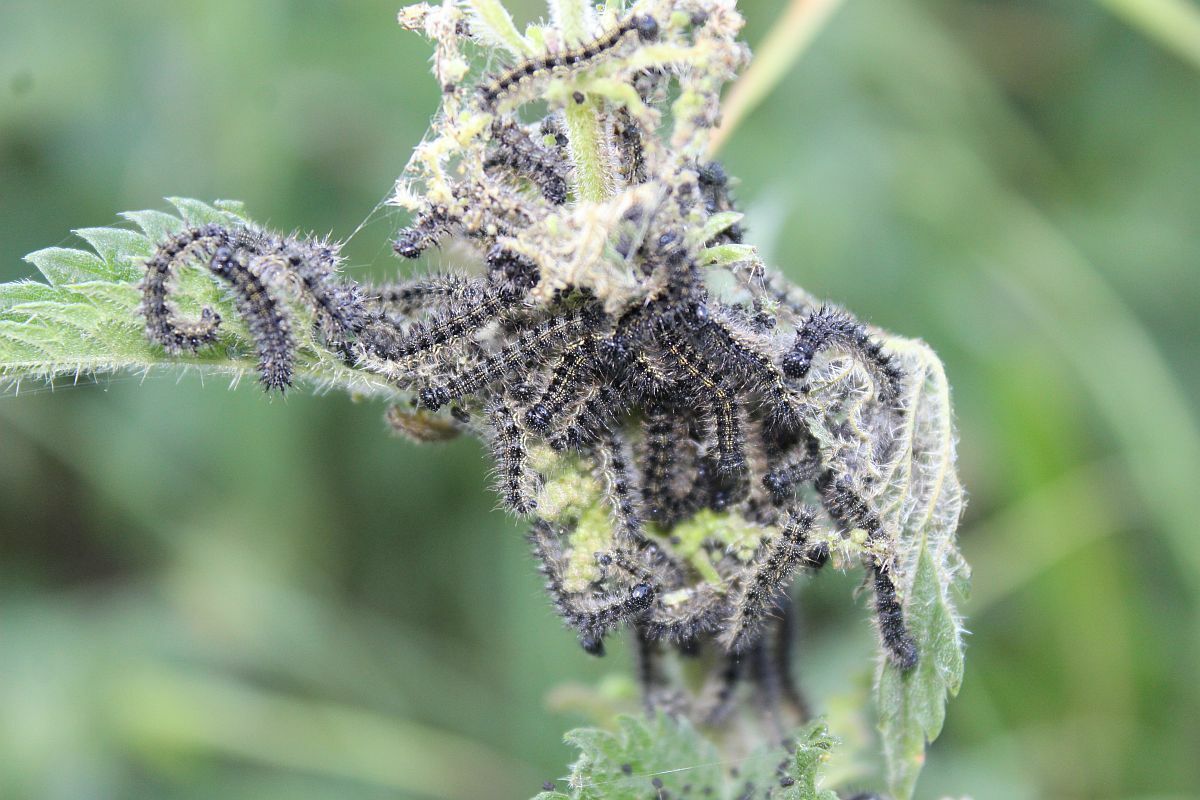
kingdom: Animalia
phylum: Arthropoda
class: Insecta
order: Lepidoptera
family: Nymphalidae
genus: Aglais
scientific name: Aglais urticae
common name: Small tortoiseshell
